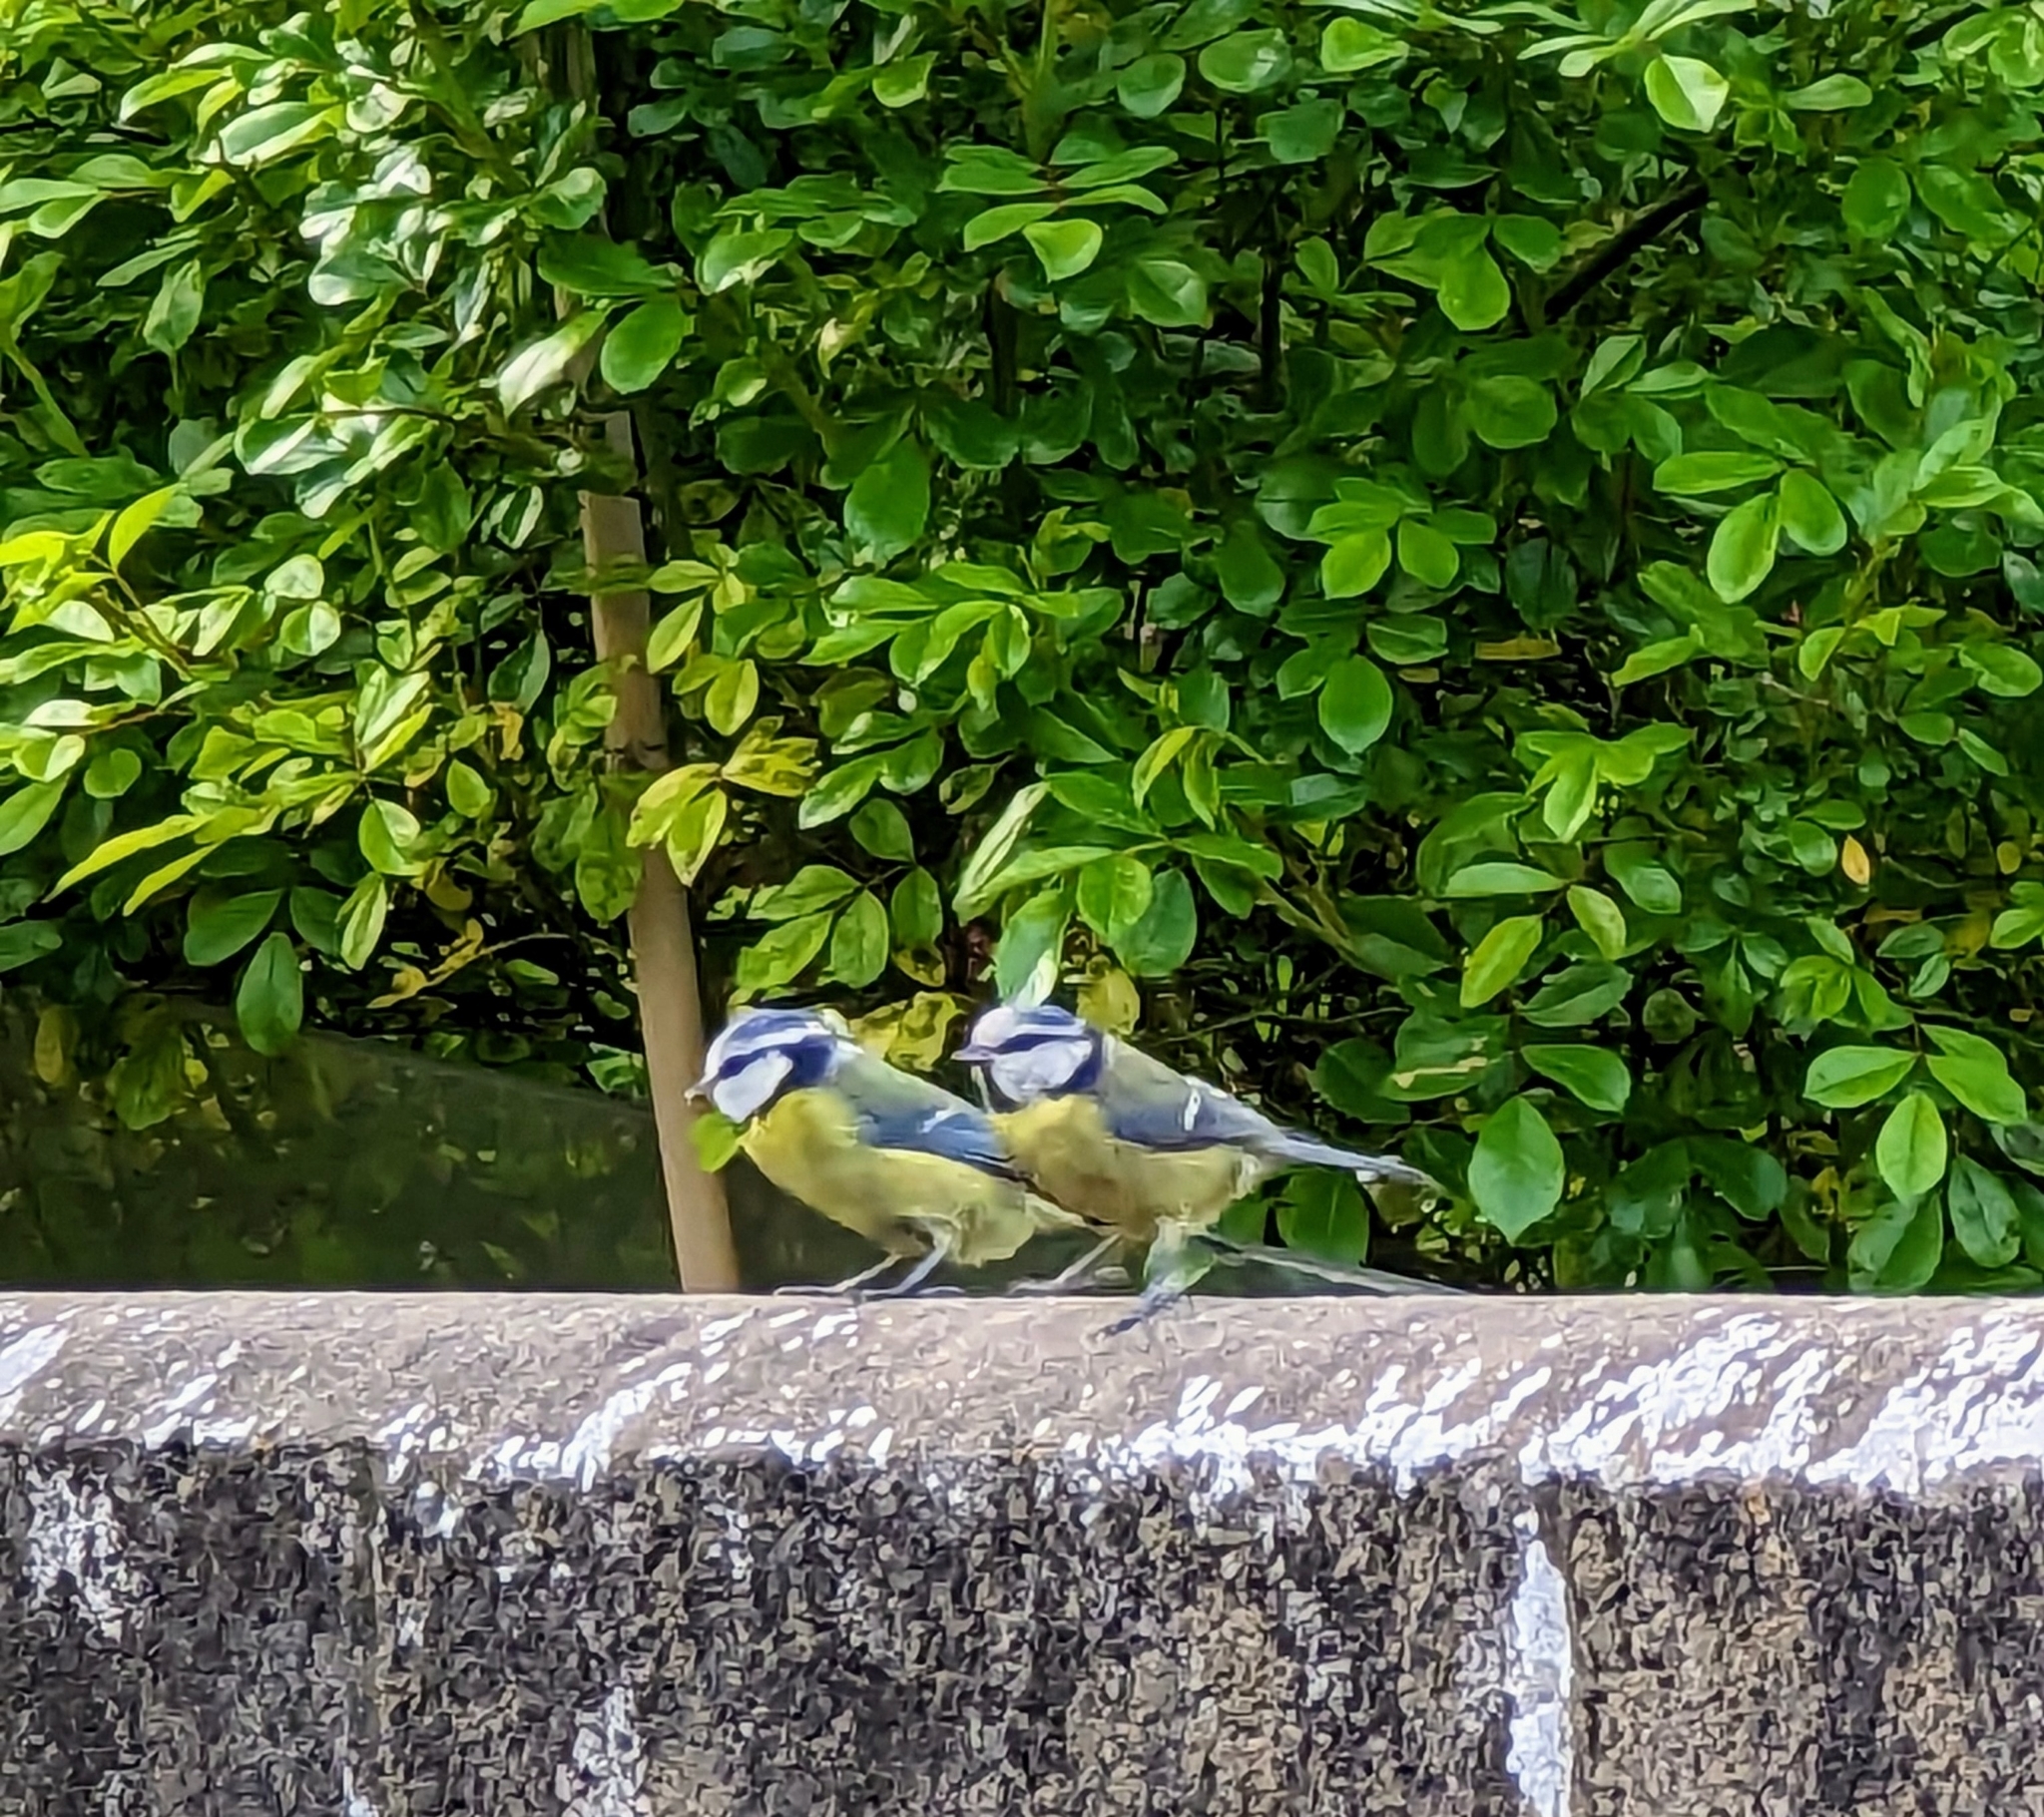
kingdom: Animalia
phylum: Chordata
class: Aves
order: Passeriformes
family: Paridae
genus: Cyanistes
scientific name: Cyanistes caeruleus
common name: Eurasian blue tit
